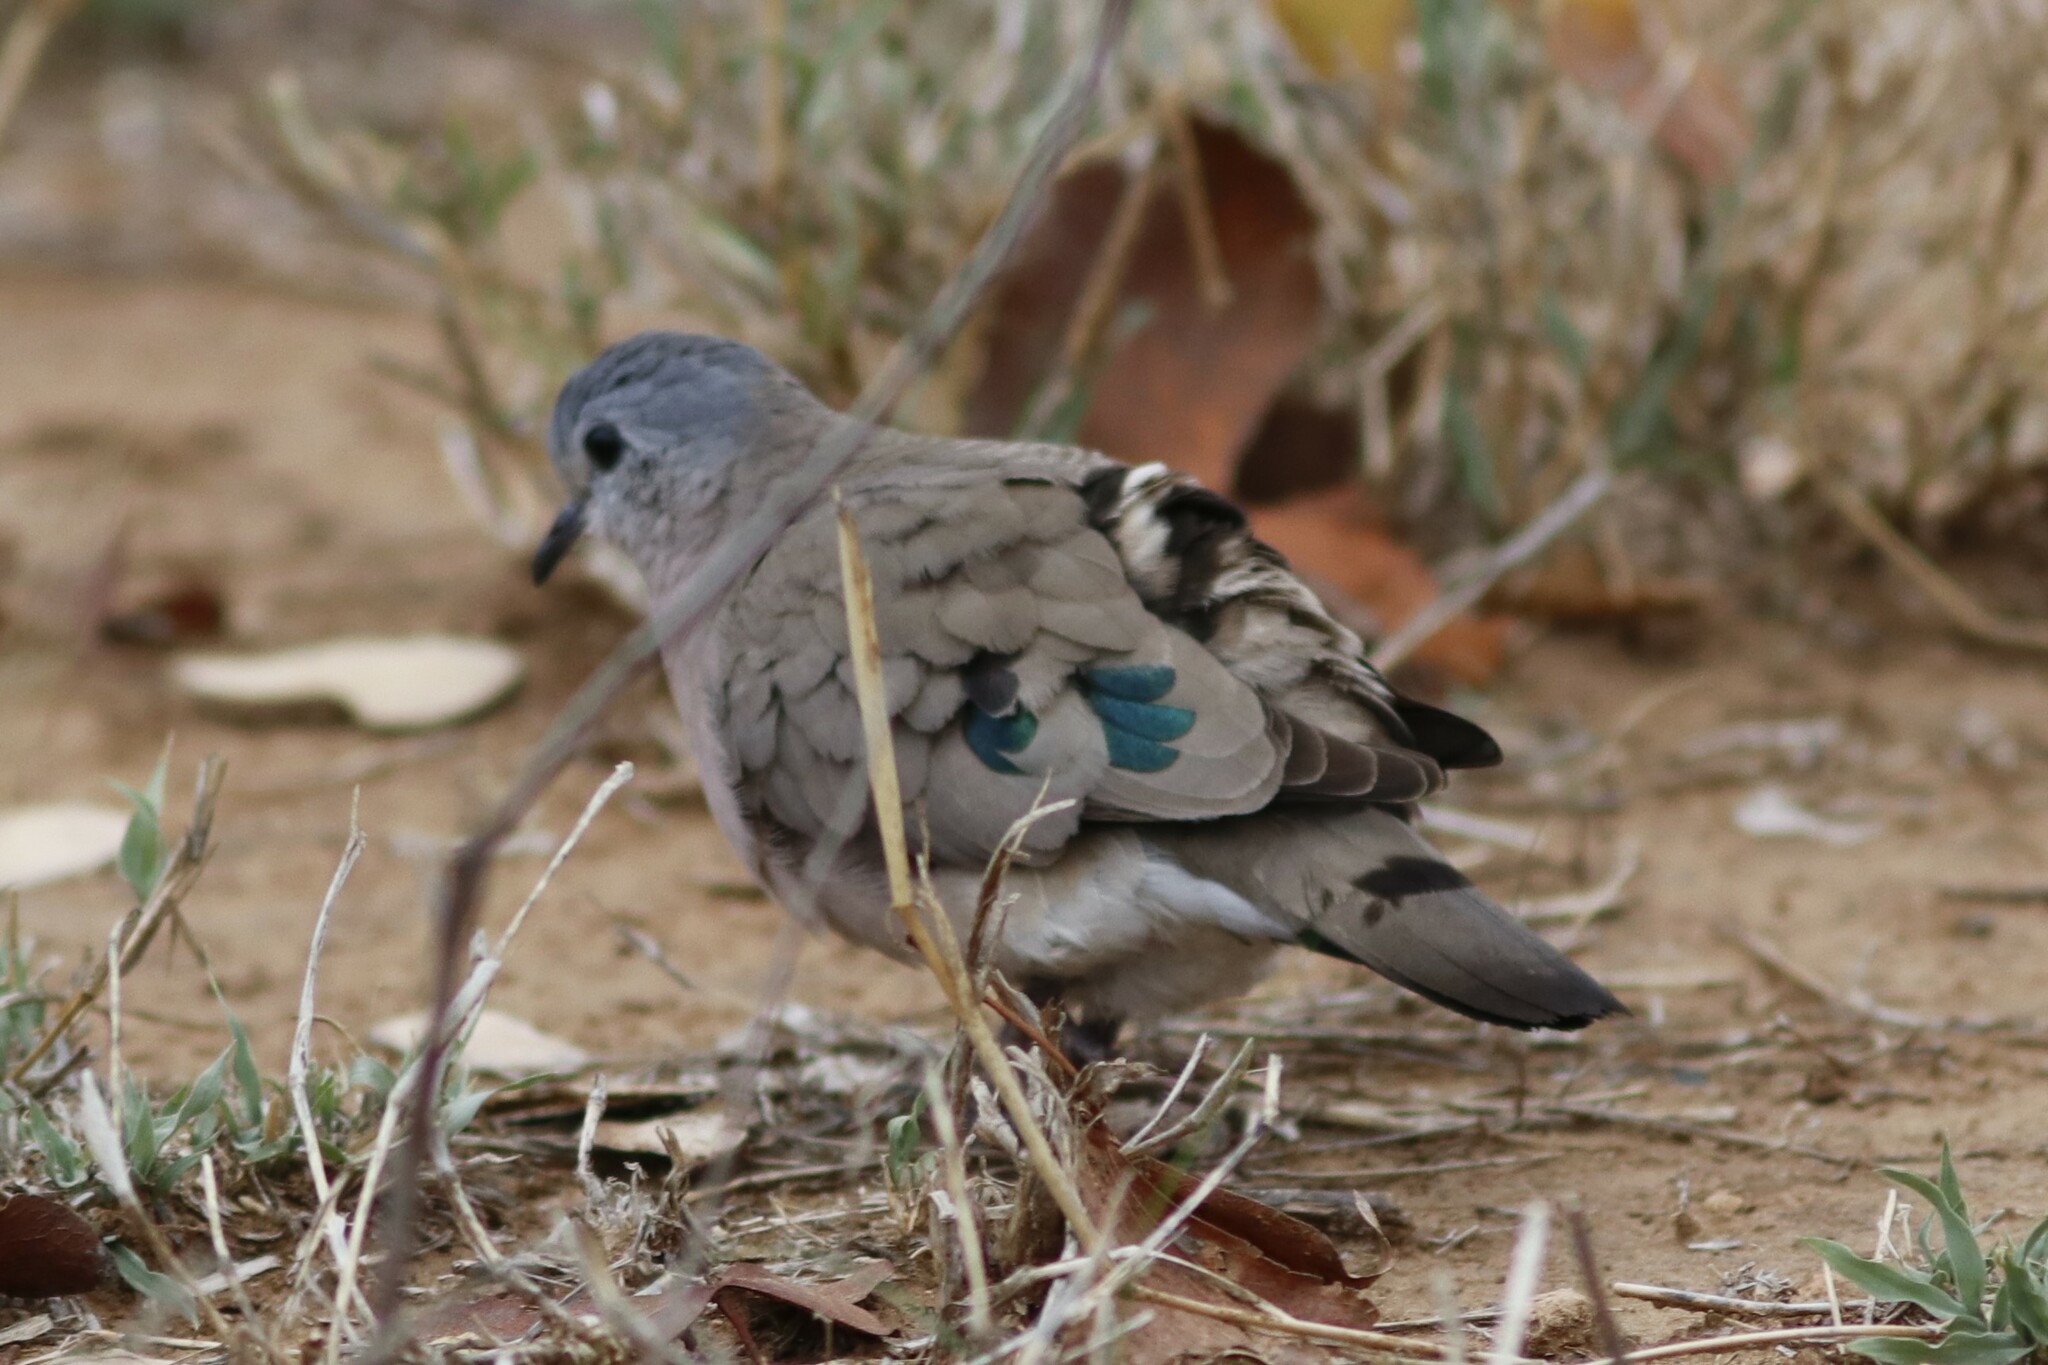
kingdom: Animalia
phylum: Chordata
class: Aves
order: Columbiformes
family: Columbidae
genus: Turtur
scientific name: Turtur chalcospilos
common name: Emerald-spotted wood dove
